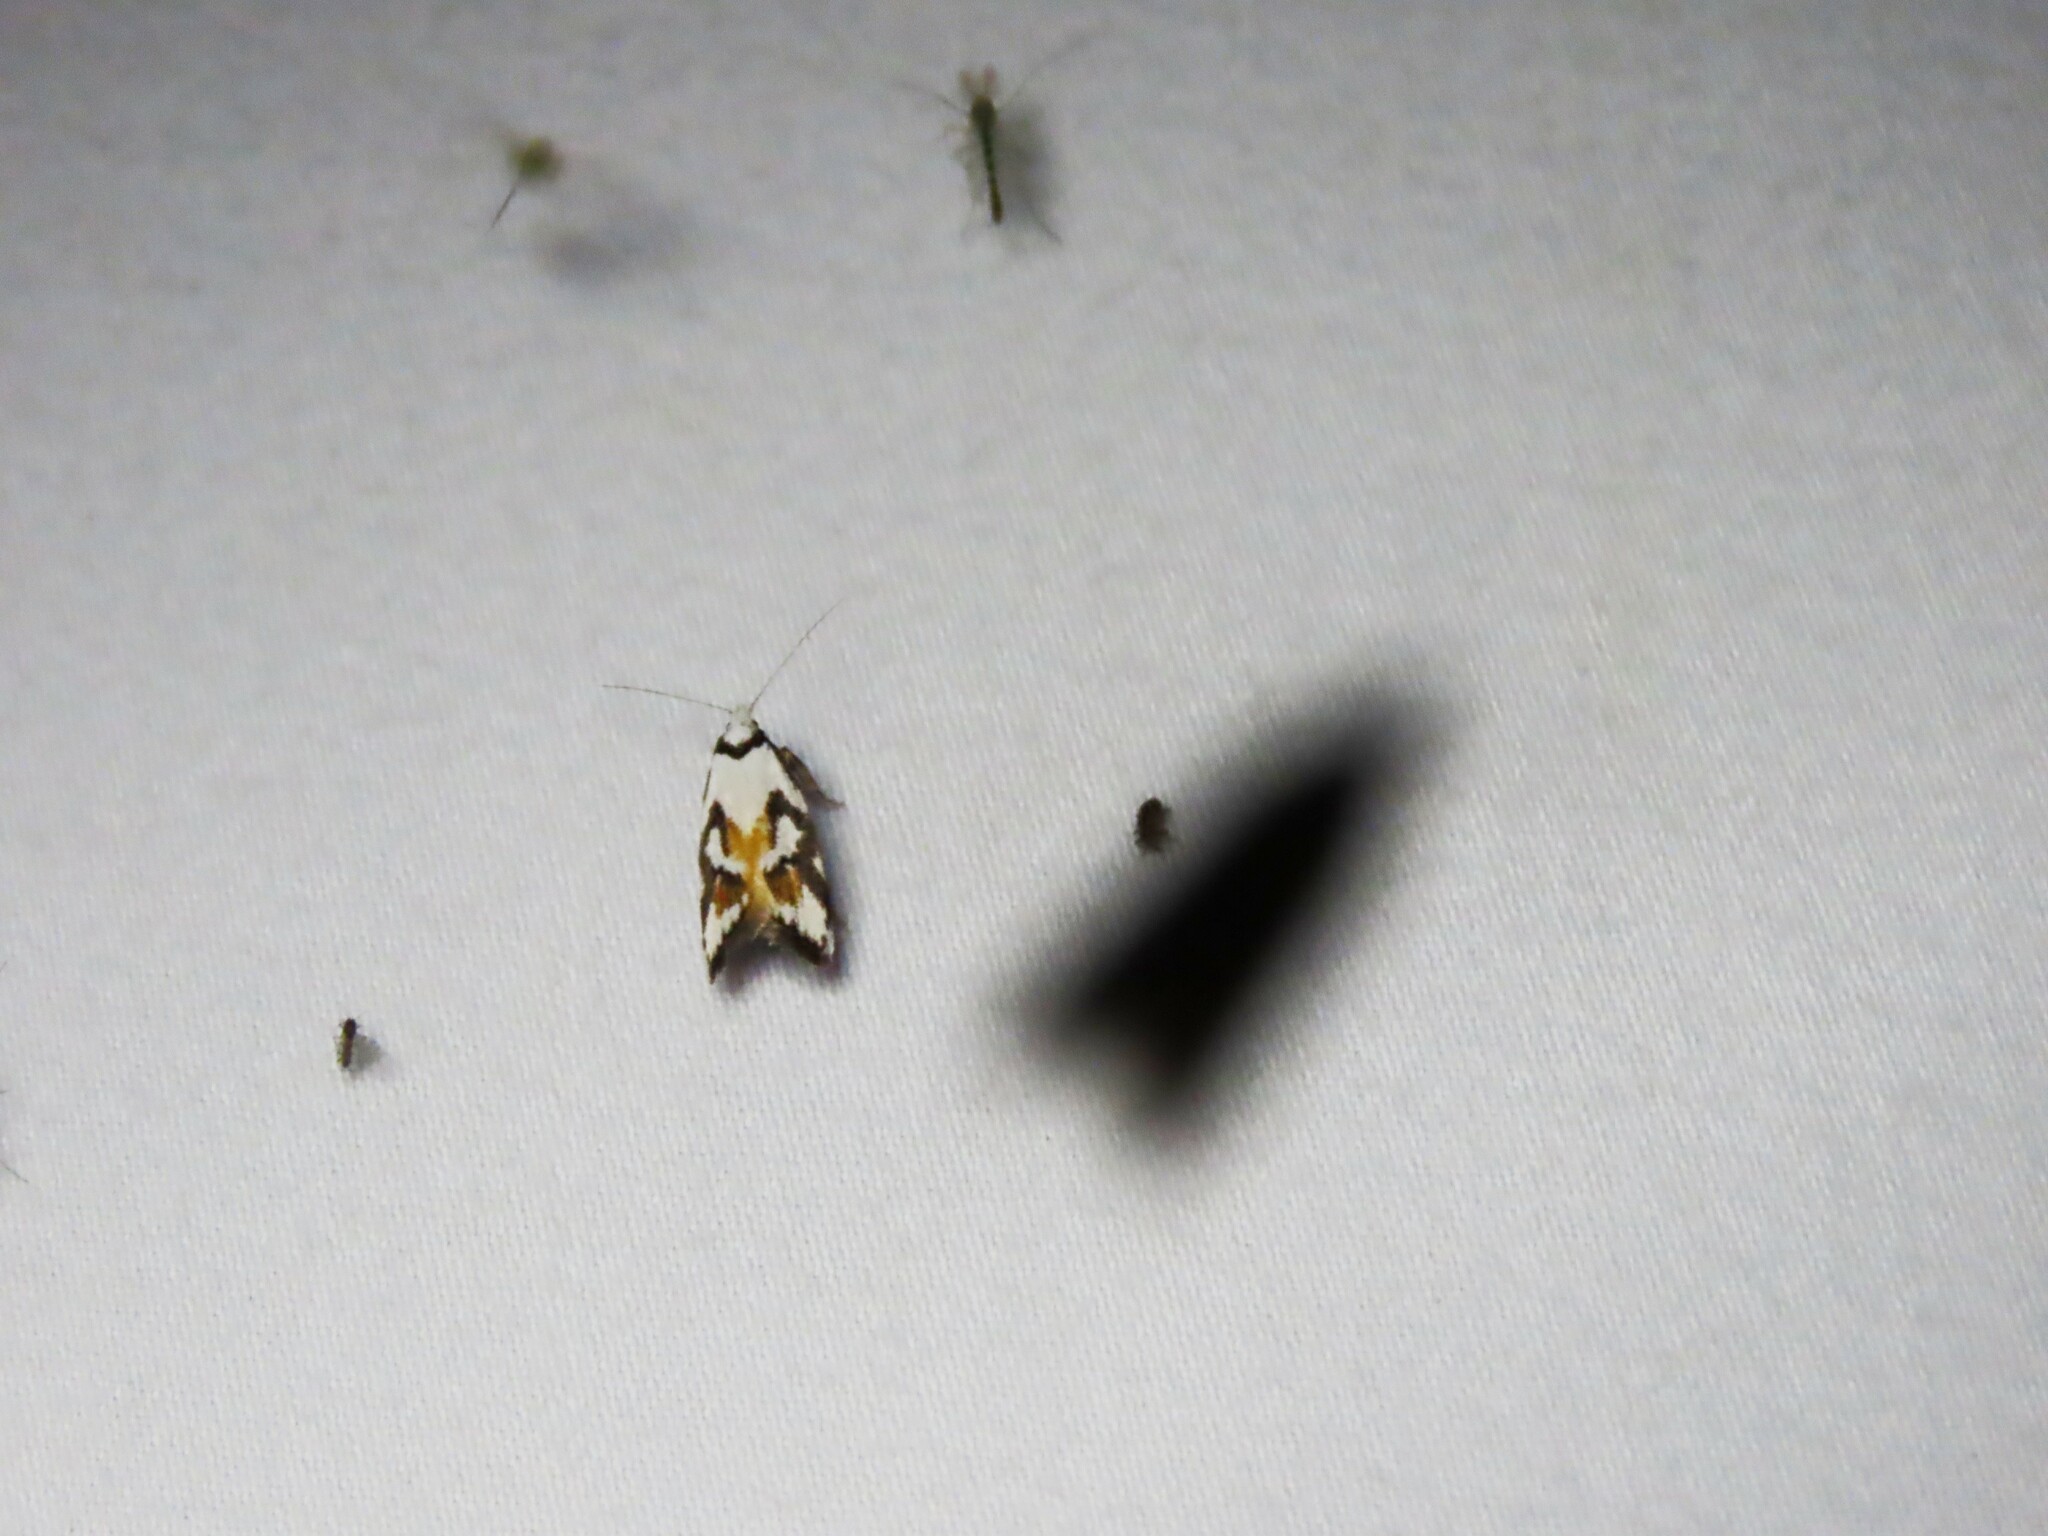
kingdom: Animalia
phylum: Arthropoda
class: Insecta
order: Lepidoptera
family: Oecophoridae
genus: Cosmaresta
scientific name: Cosmaresta anarrecta
